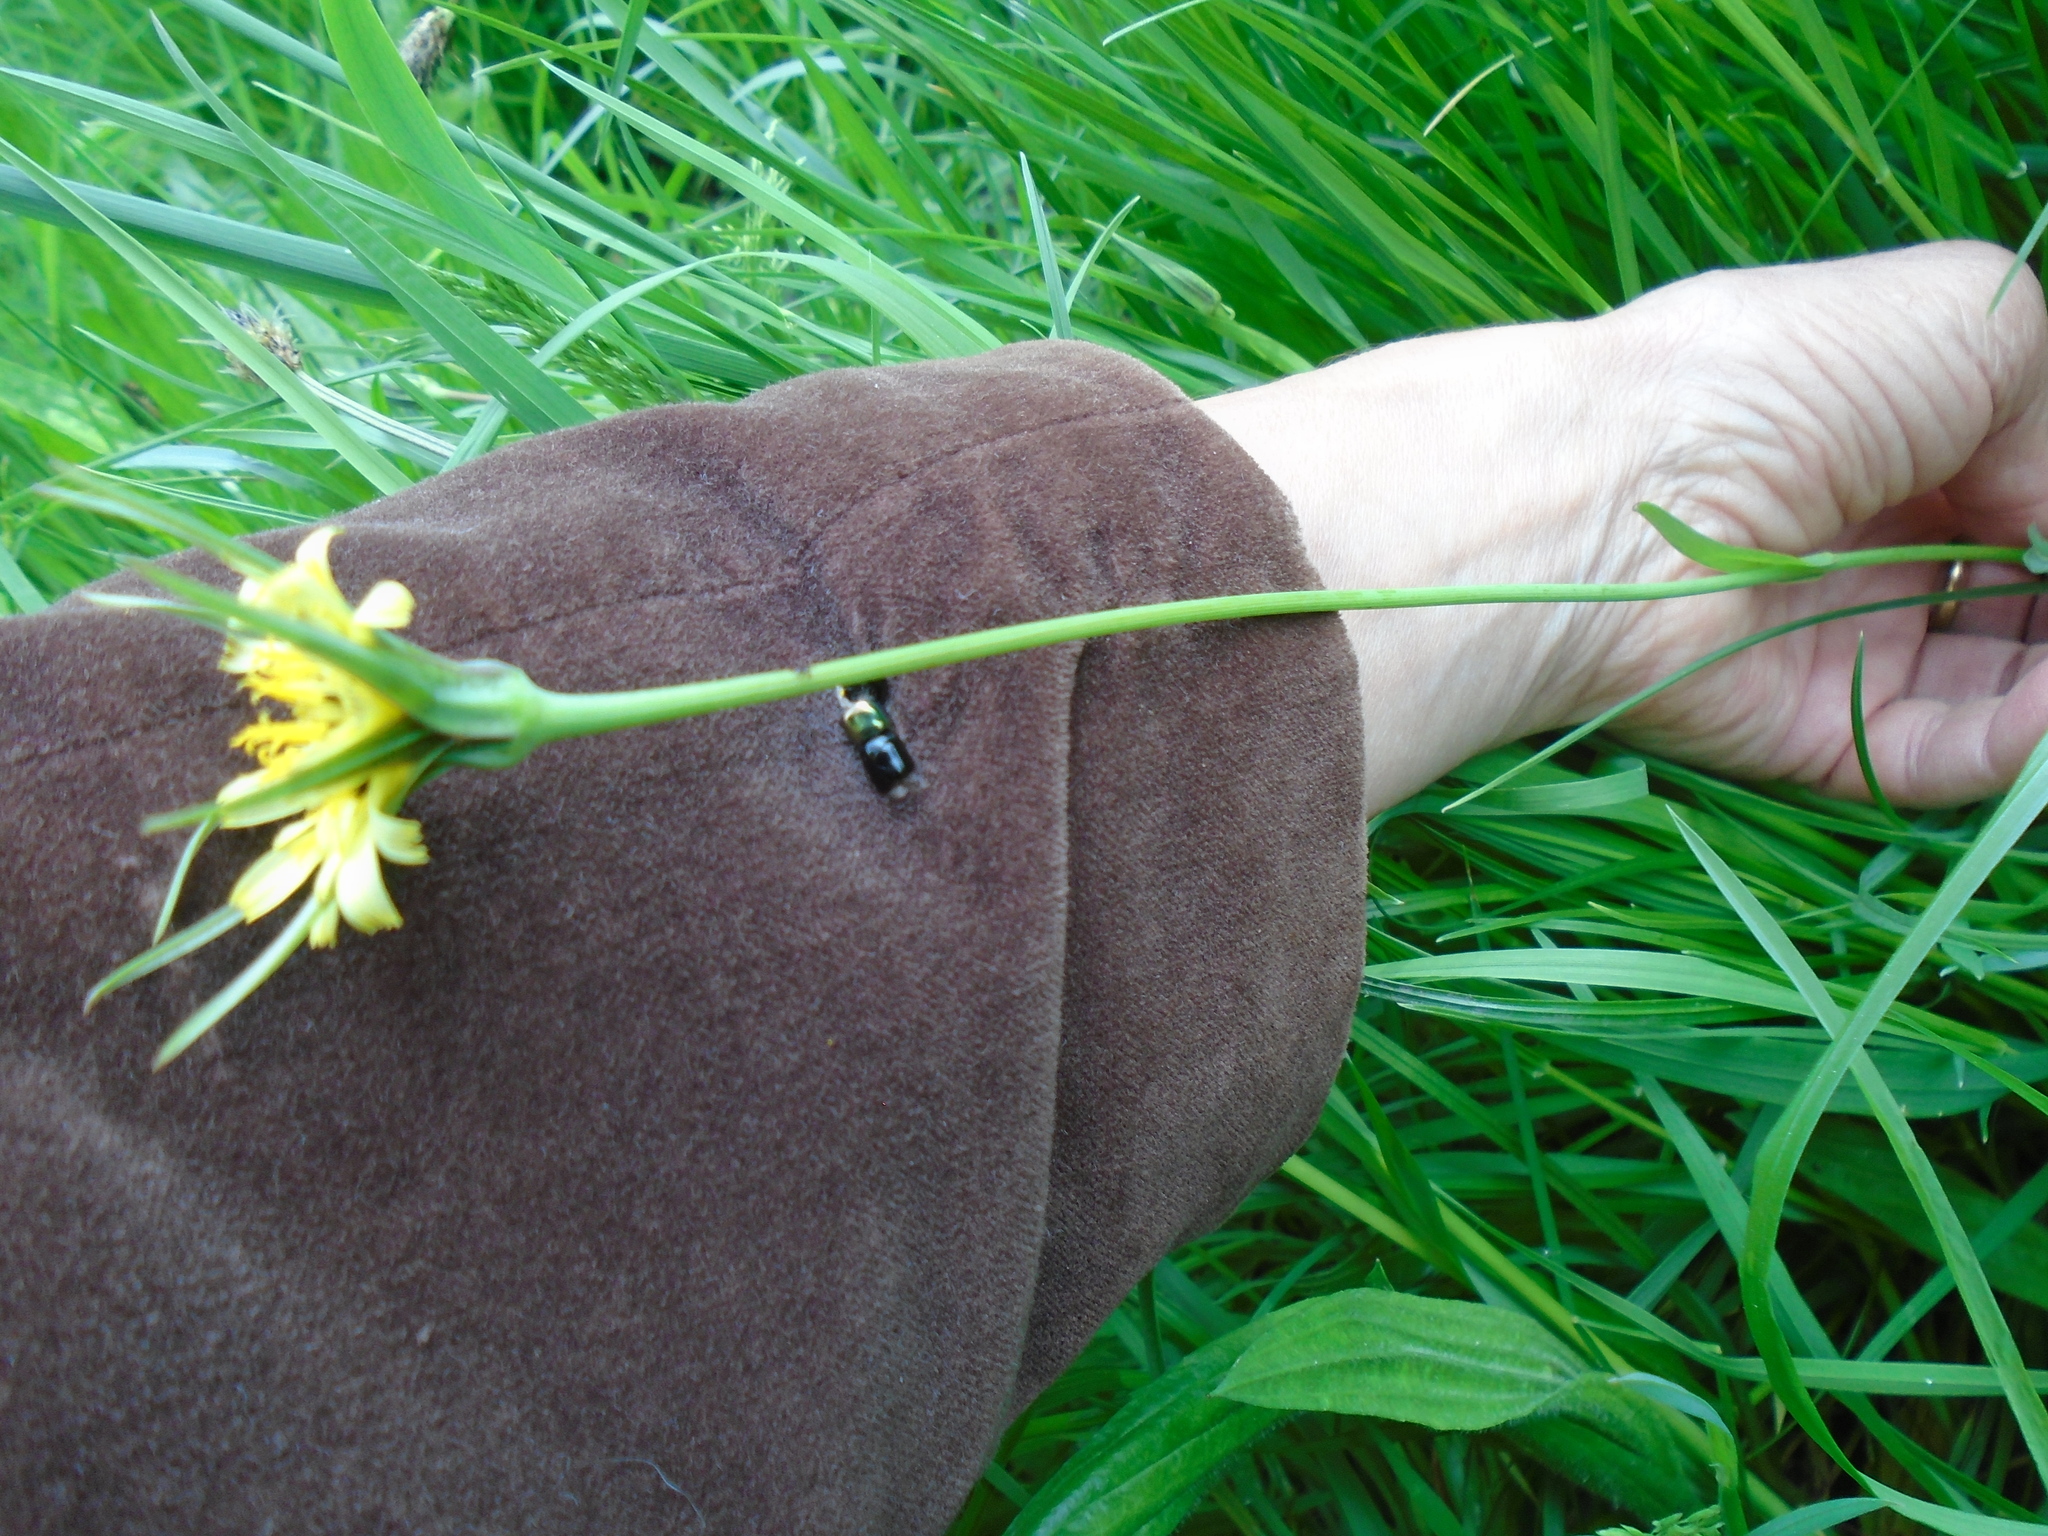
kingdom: Plantae
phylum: Tracheophyta
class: Magnoliopsida
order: Asterales
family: Asteraceae
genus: Tragopogon
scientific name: Tragopogon minor
